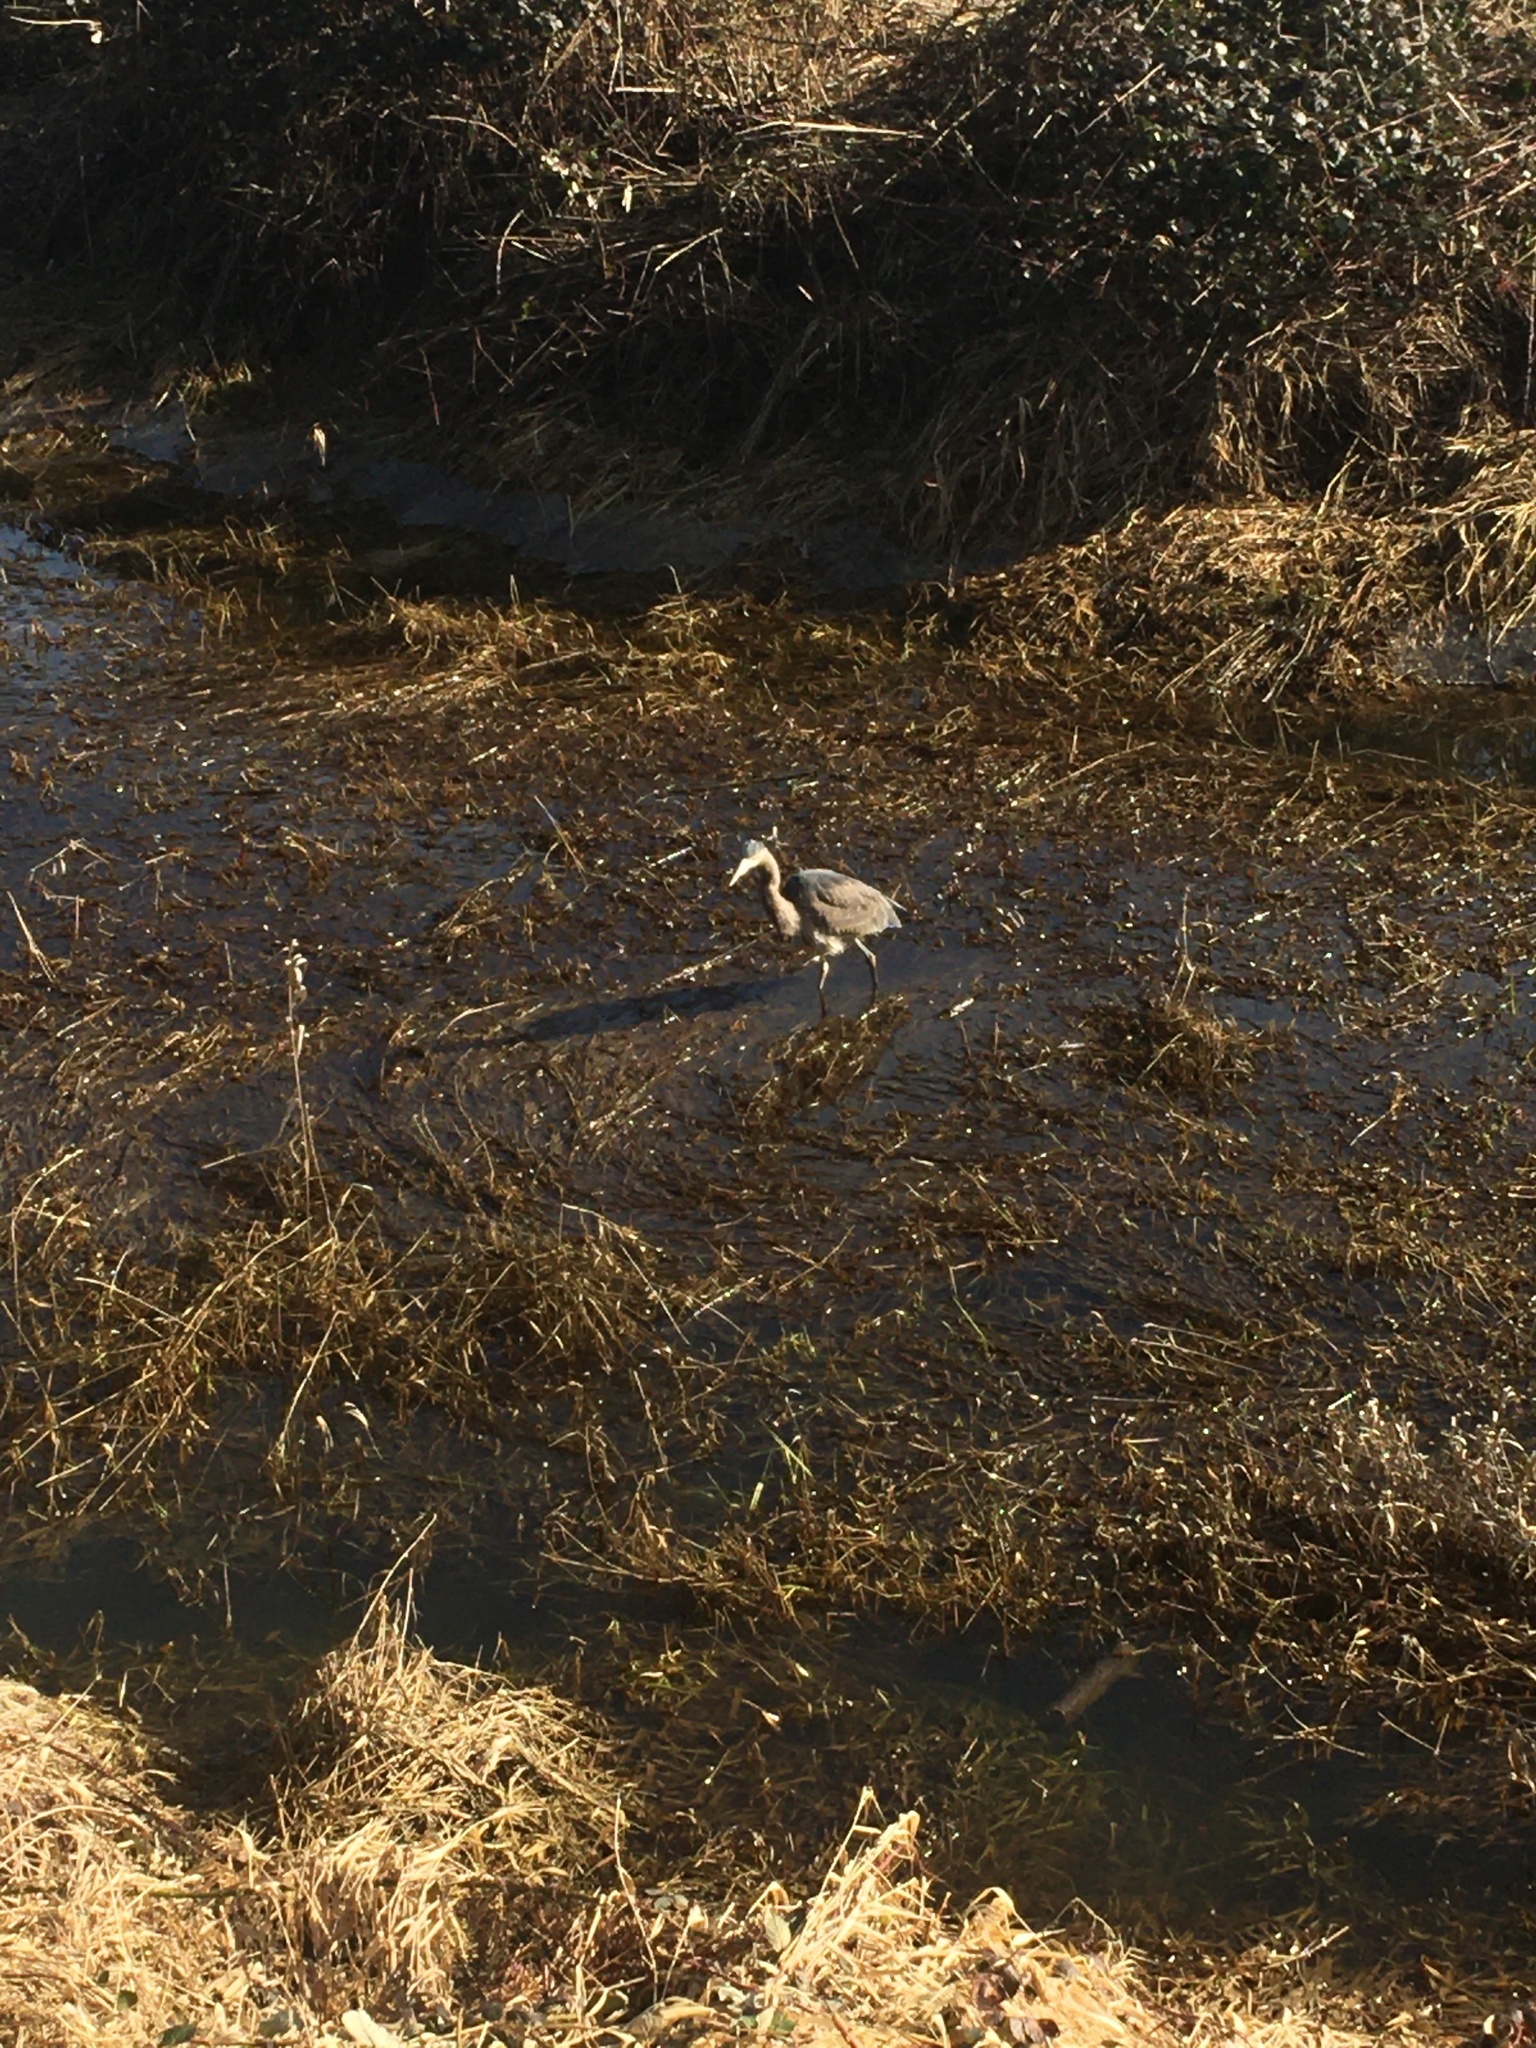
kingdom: Animalia
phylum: Chordata
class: Aves
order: Pelecaniformes
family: Ardeidae
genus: Ardea
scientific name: Ardea herodias
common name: Great blue heron
